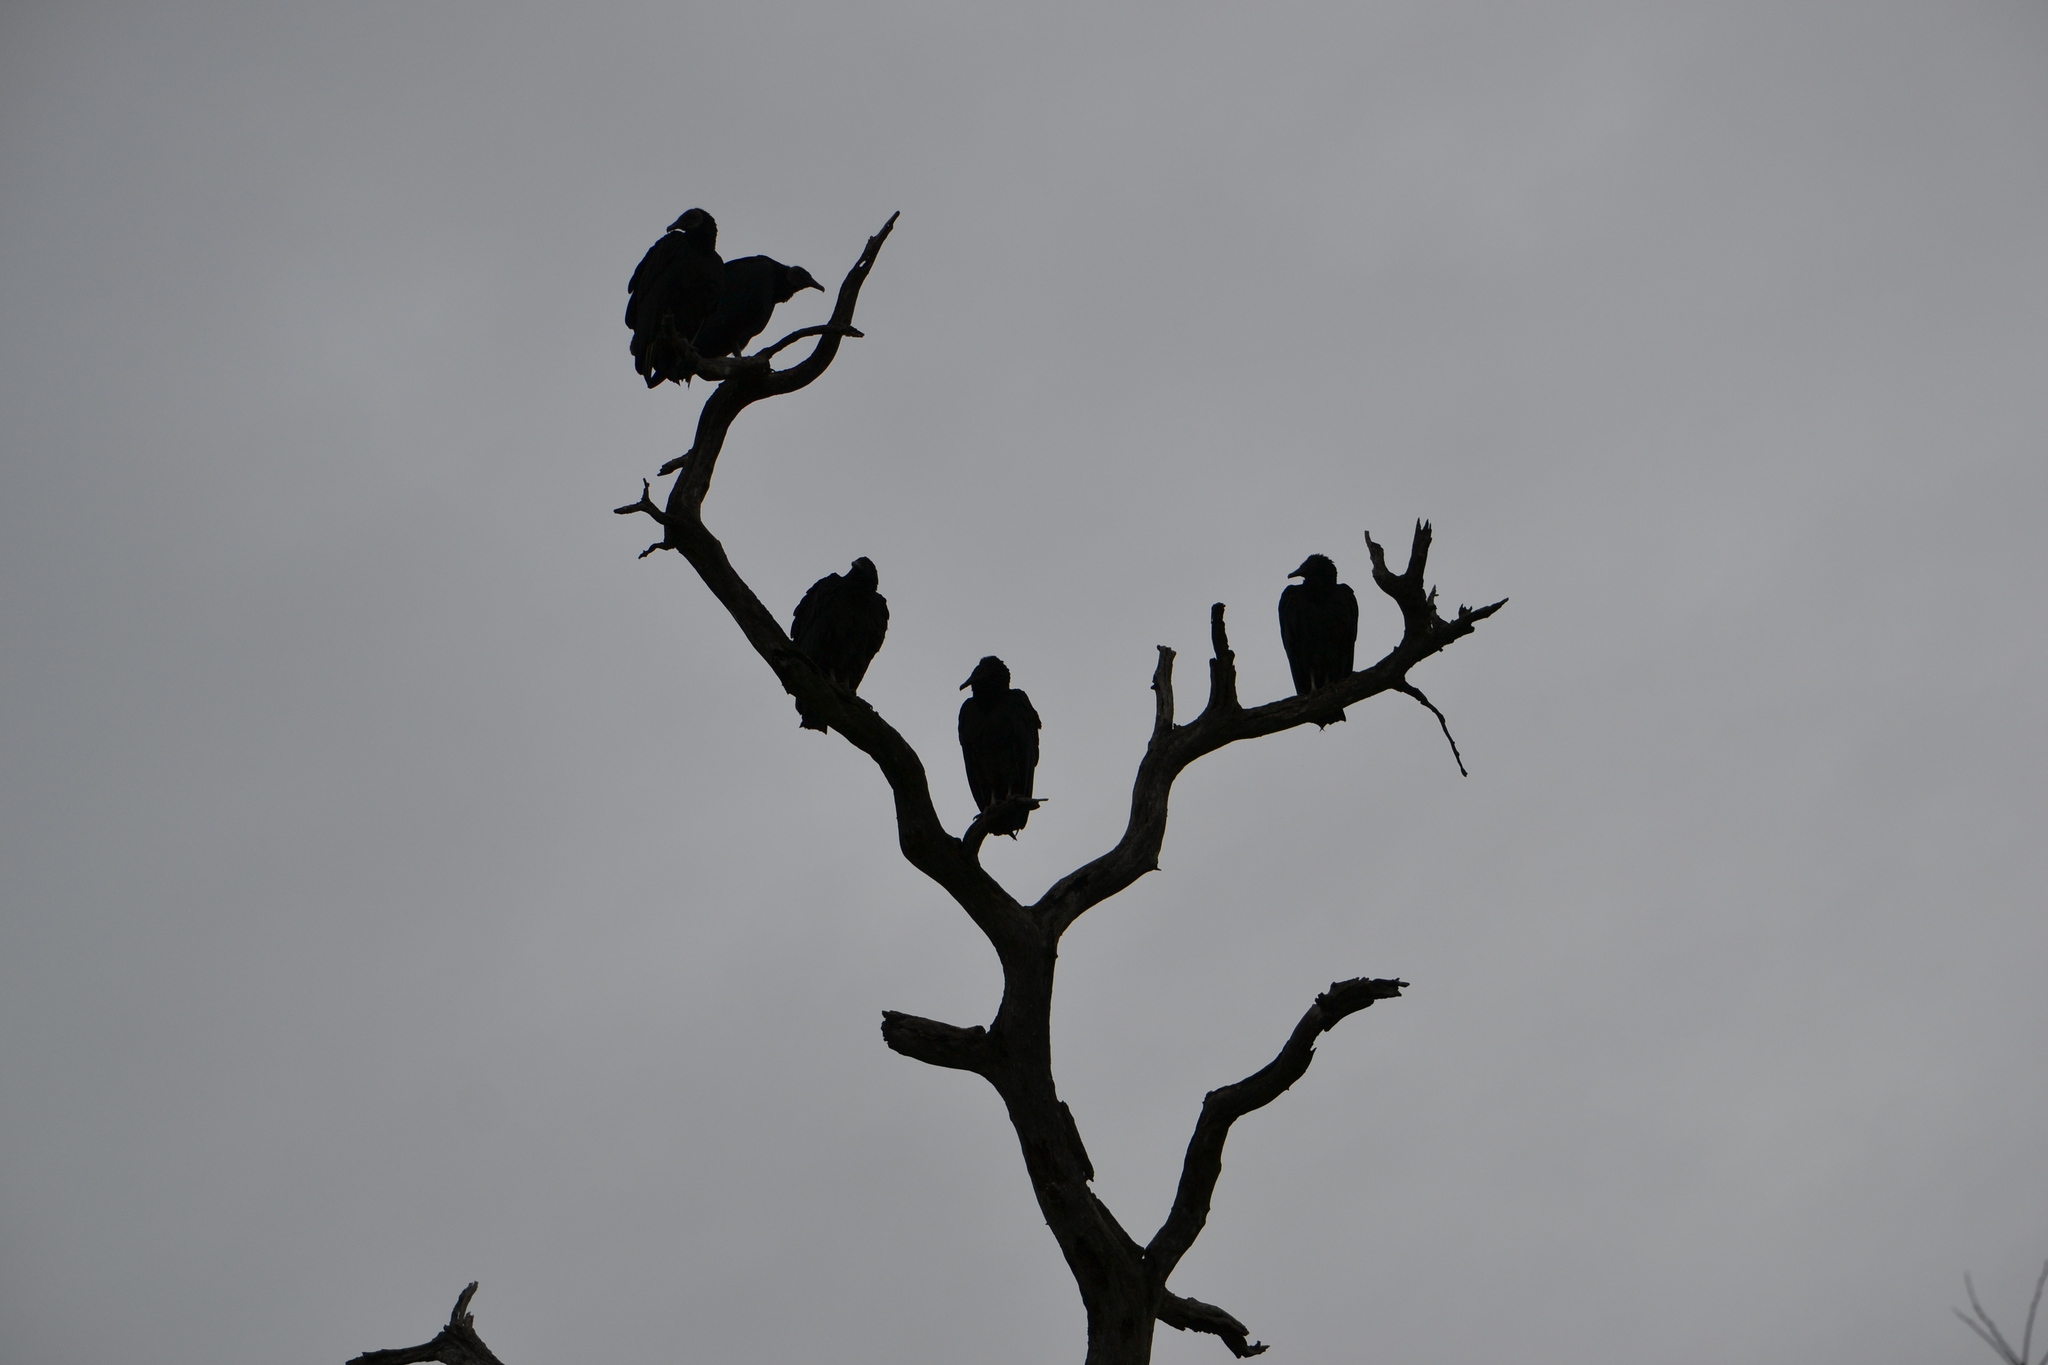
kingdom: Animalia
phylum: Chordata
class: Aves
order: Accipitriformes
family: Cathartidae
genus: Coragyps
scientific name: Coragyps atratus
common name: Black vulture
